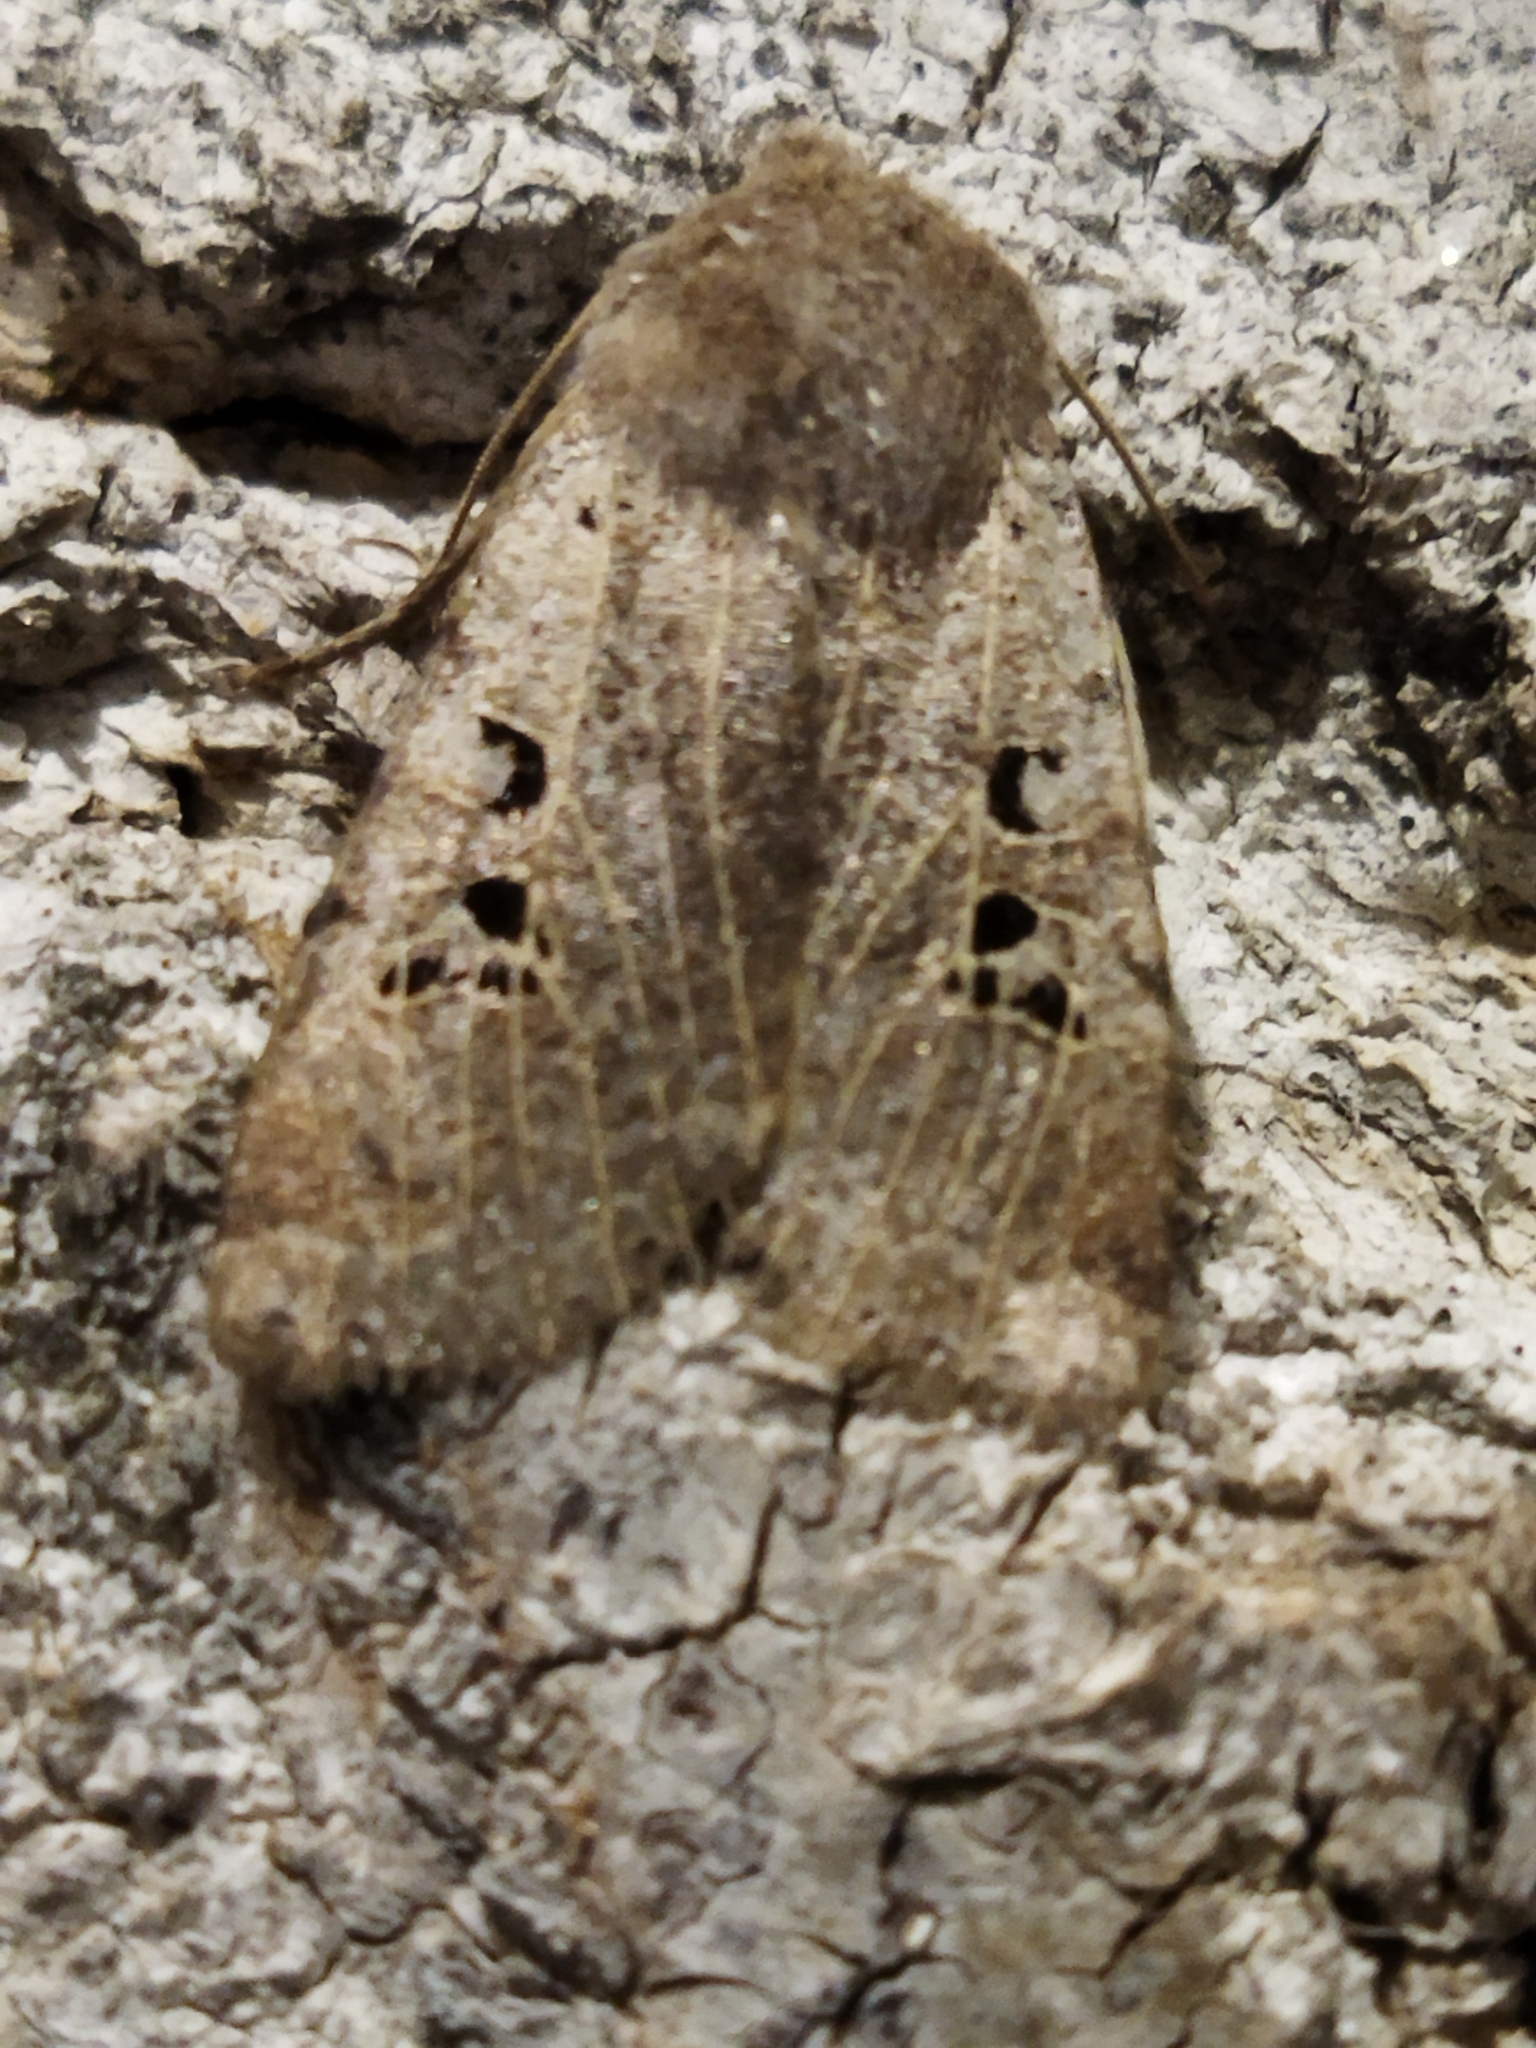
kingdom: Animalia
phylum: Arthropoda
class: Insecta
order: Lepidoptera
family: Noctuidae
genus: Conistra
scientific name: Conistra rubiginosa
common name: Black-spotted chestnut
